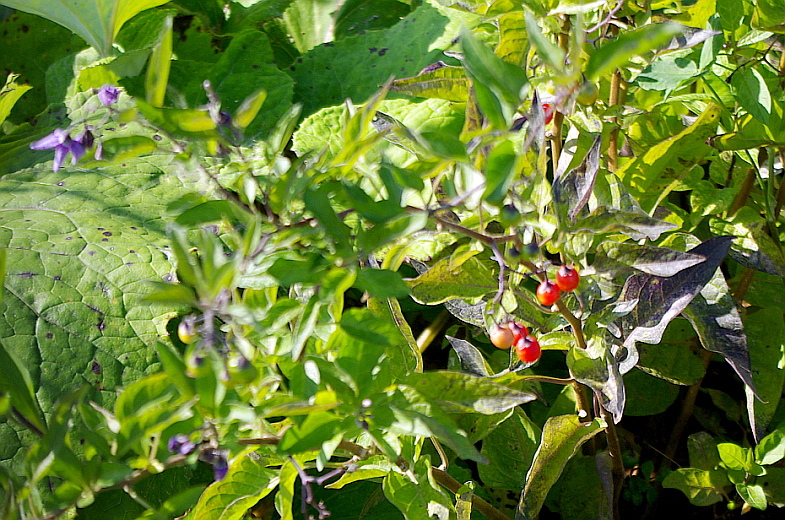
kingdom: Plantae
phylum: Tracheophyta
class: Magnoliopsida
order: Solanales
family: Solanaceae
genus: Solanum
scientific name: Solanum dulcamara
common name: Climbing nightshade
